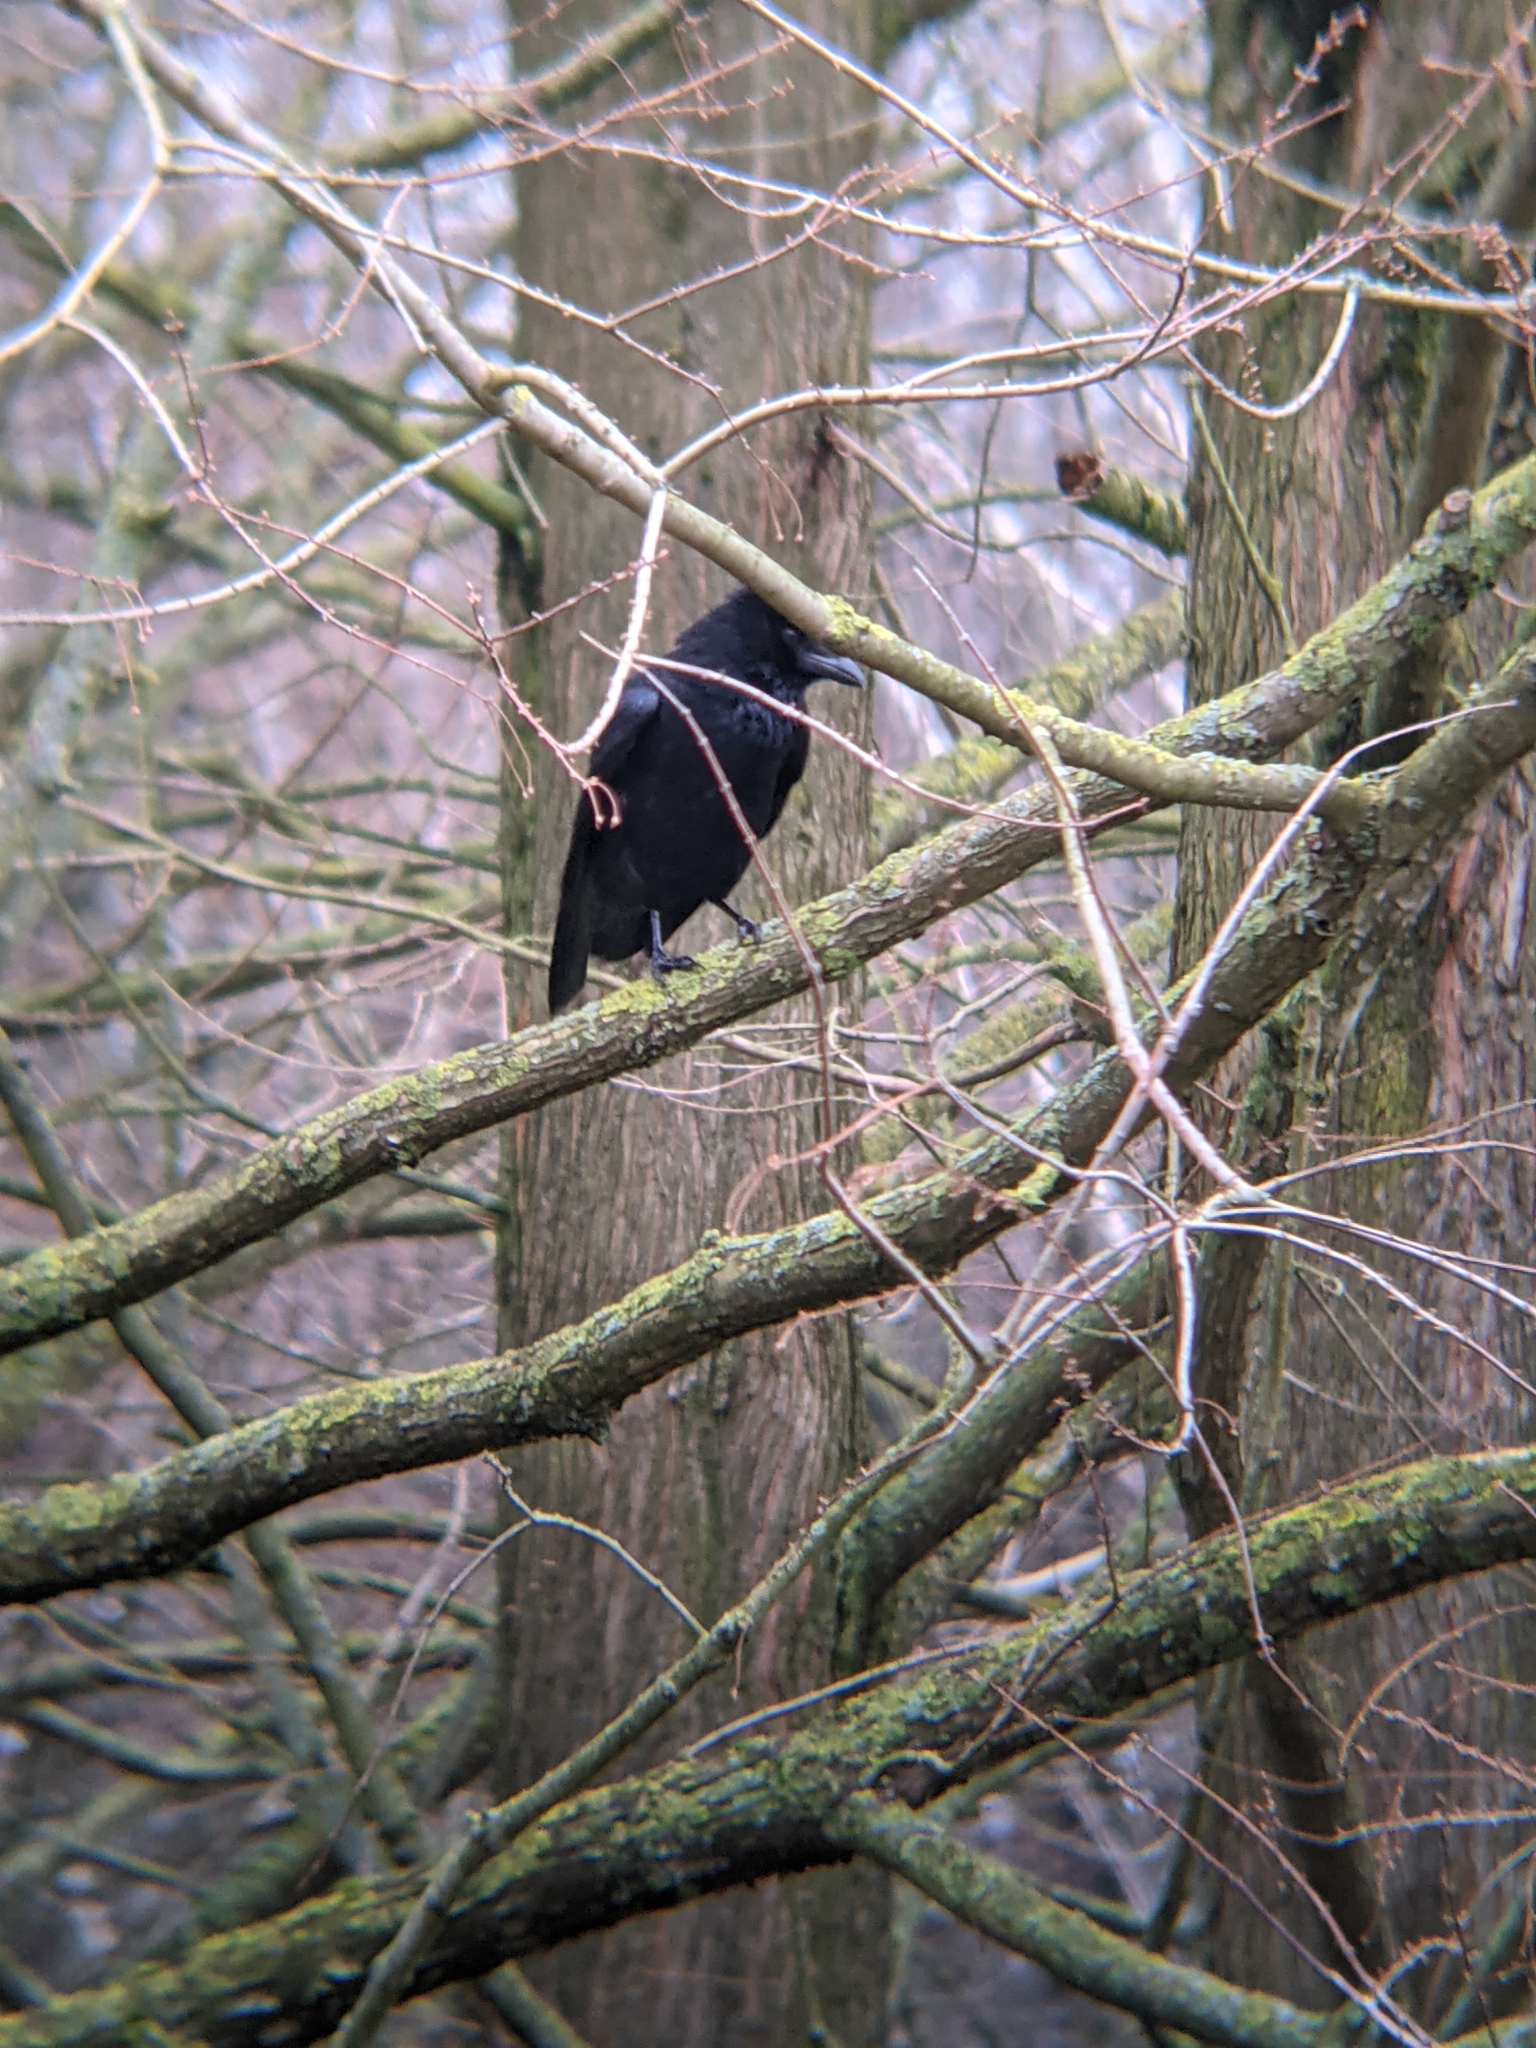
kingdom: Animalia
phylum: Chordata
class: Aves
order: Passeriformes
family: Corvidae
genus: Corvus
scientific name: Corvus corone
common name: Carrion crow
